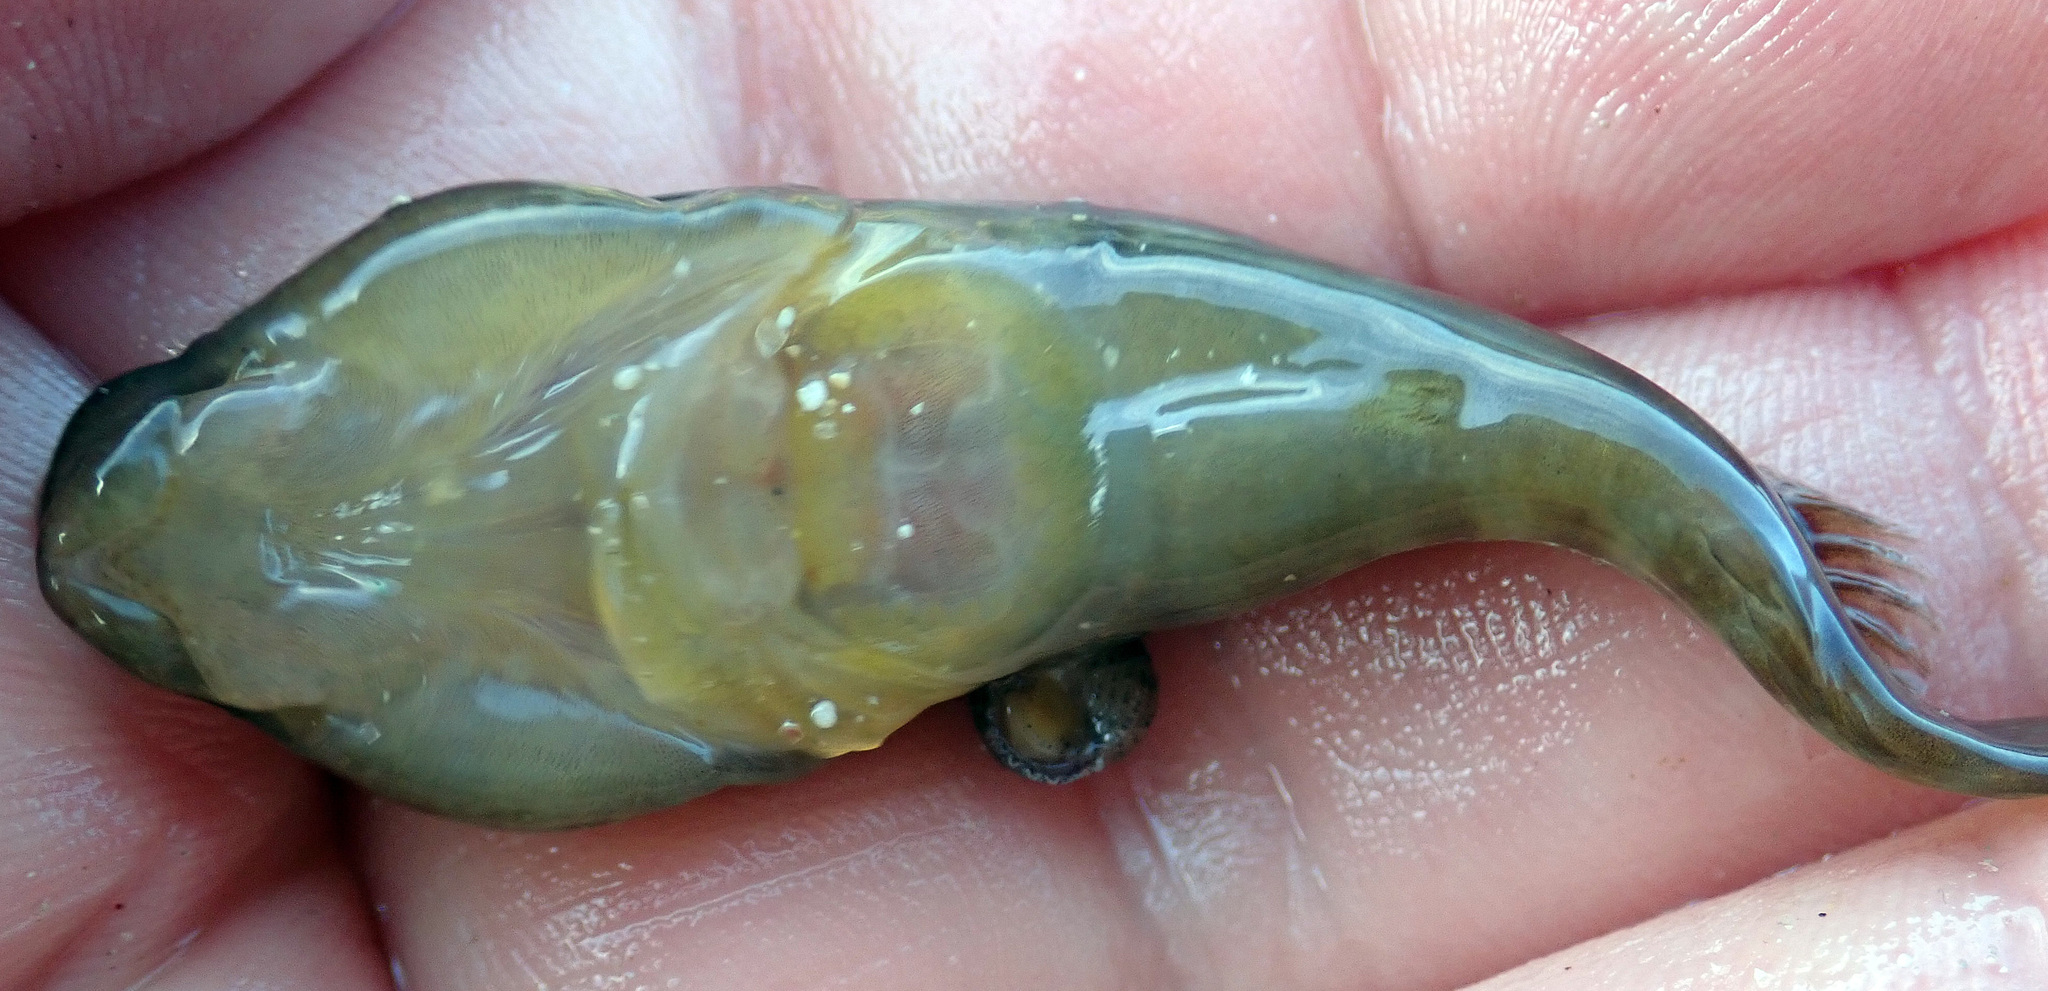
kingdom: Animalia
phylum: Chordata
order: Gobiesociformes
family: Gobiesocidae
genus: Trachelochismus
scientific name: Trachelochismus pinnulatus
